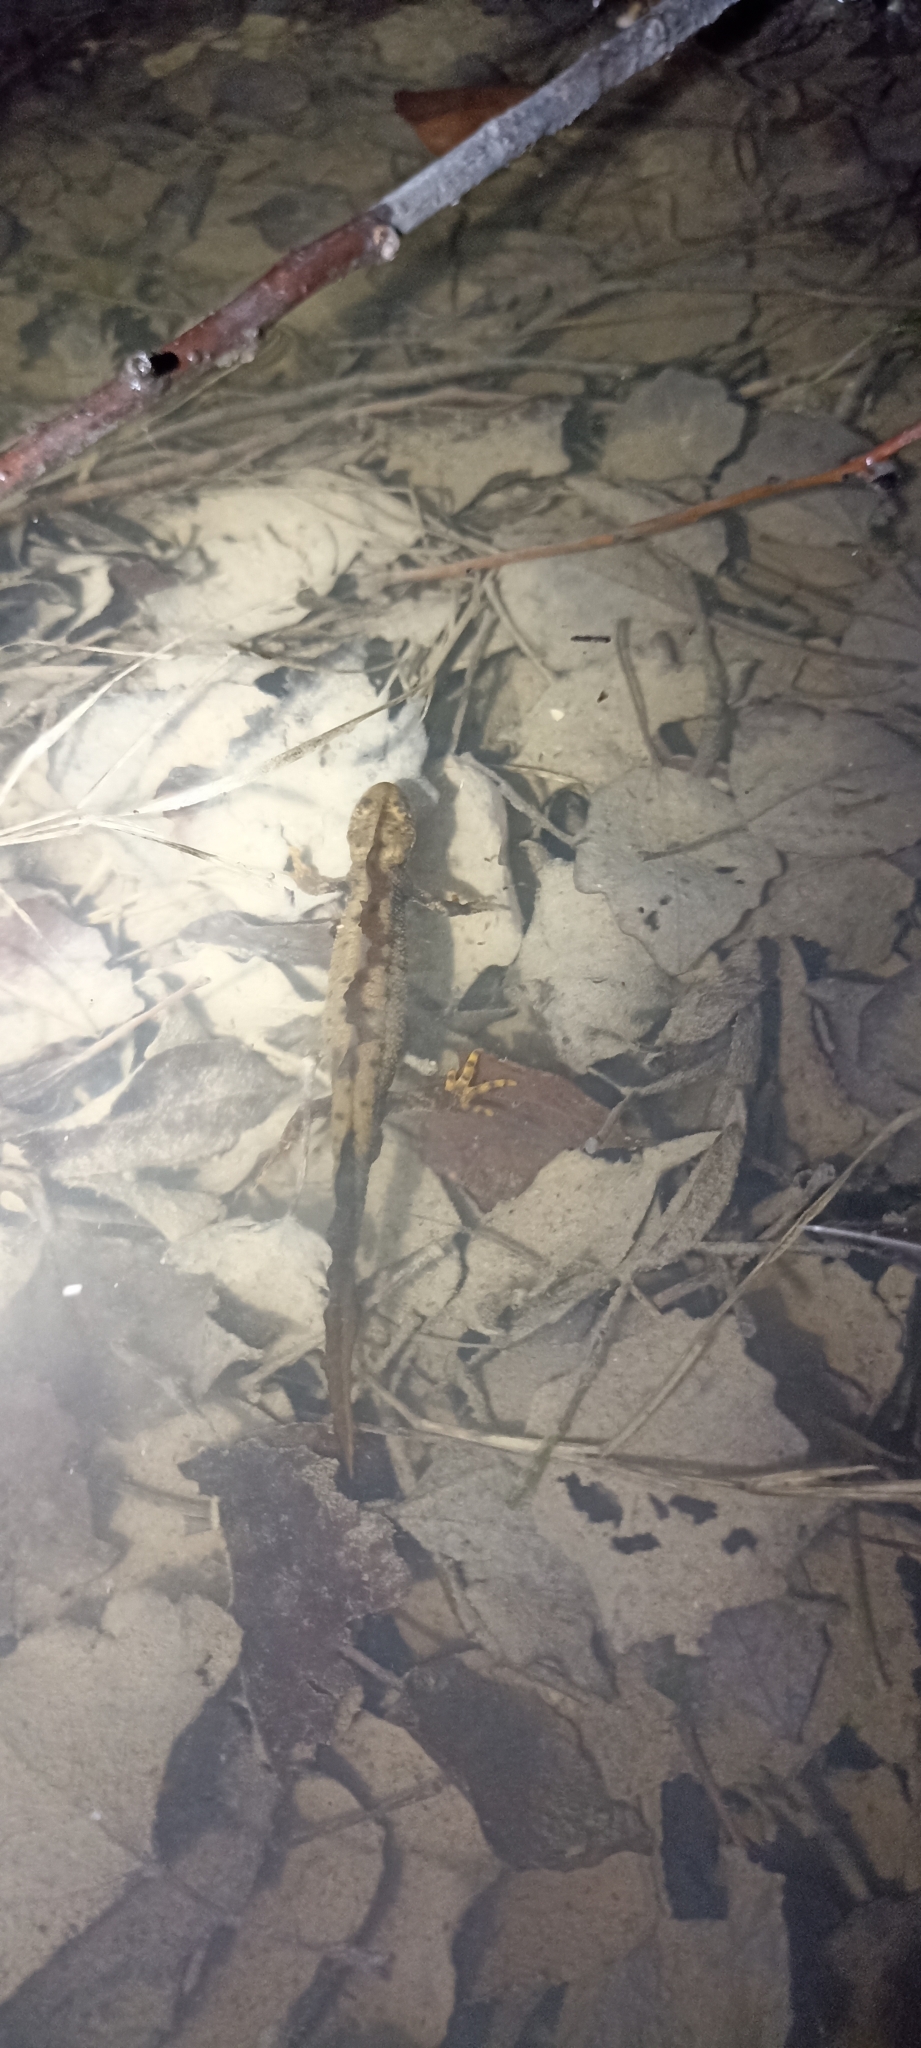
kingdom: Animalia
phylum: Chordata
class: Amphibia
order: Caudata
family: Salamandridae
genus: Triturus
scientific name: Triturus cristatus
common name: Crested newt
